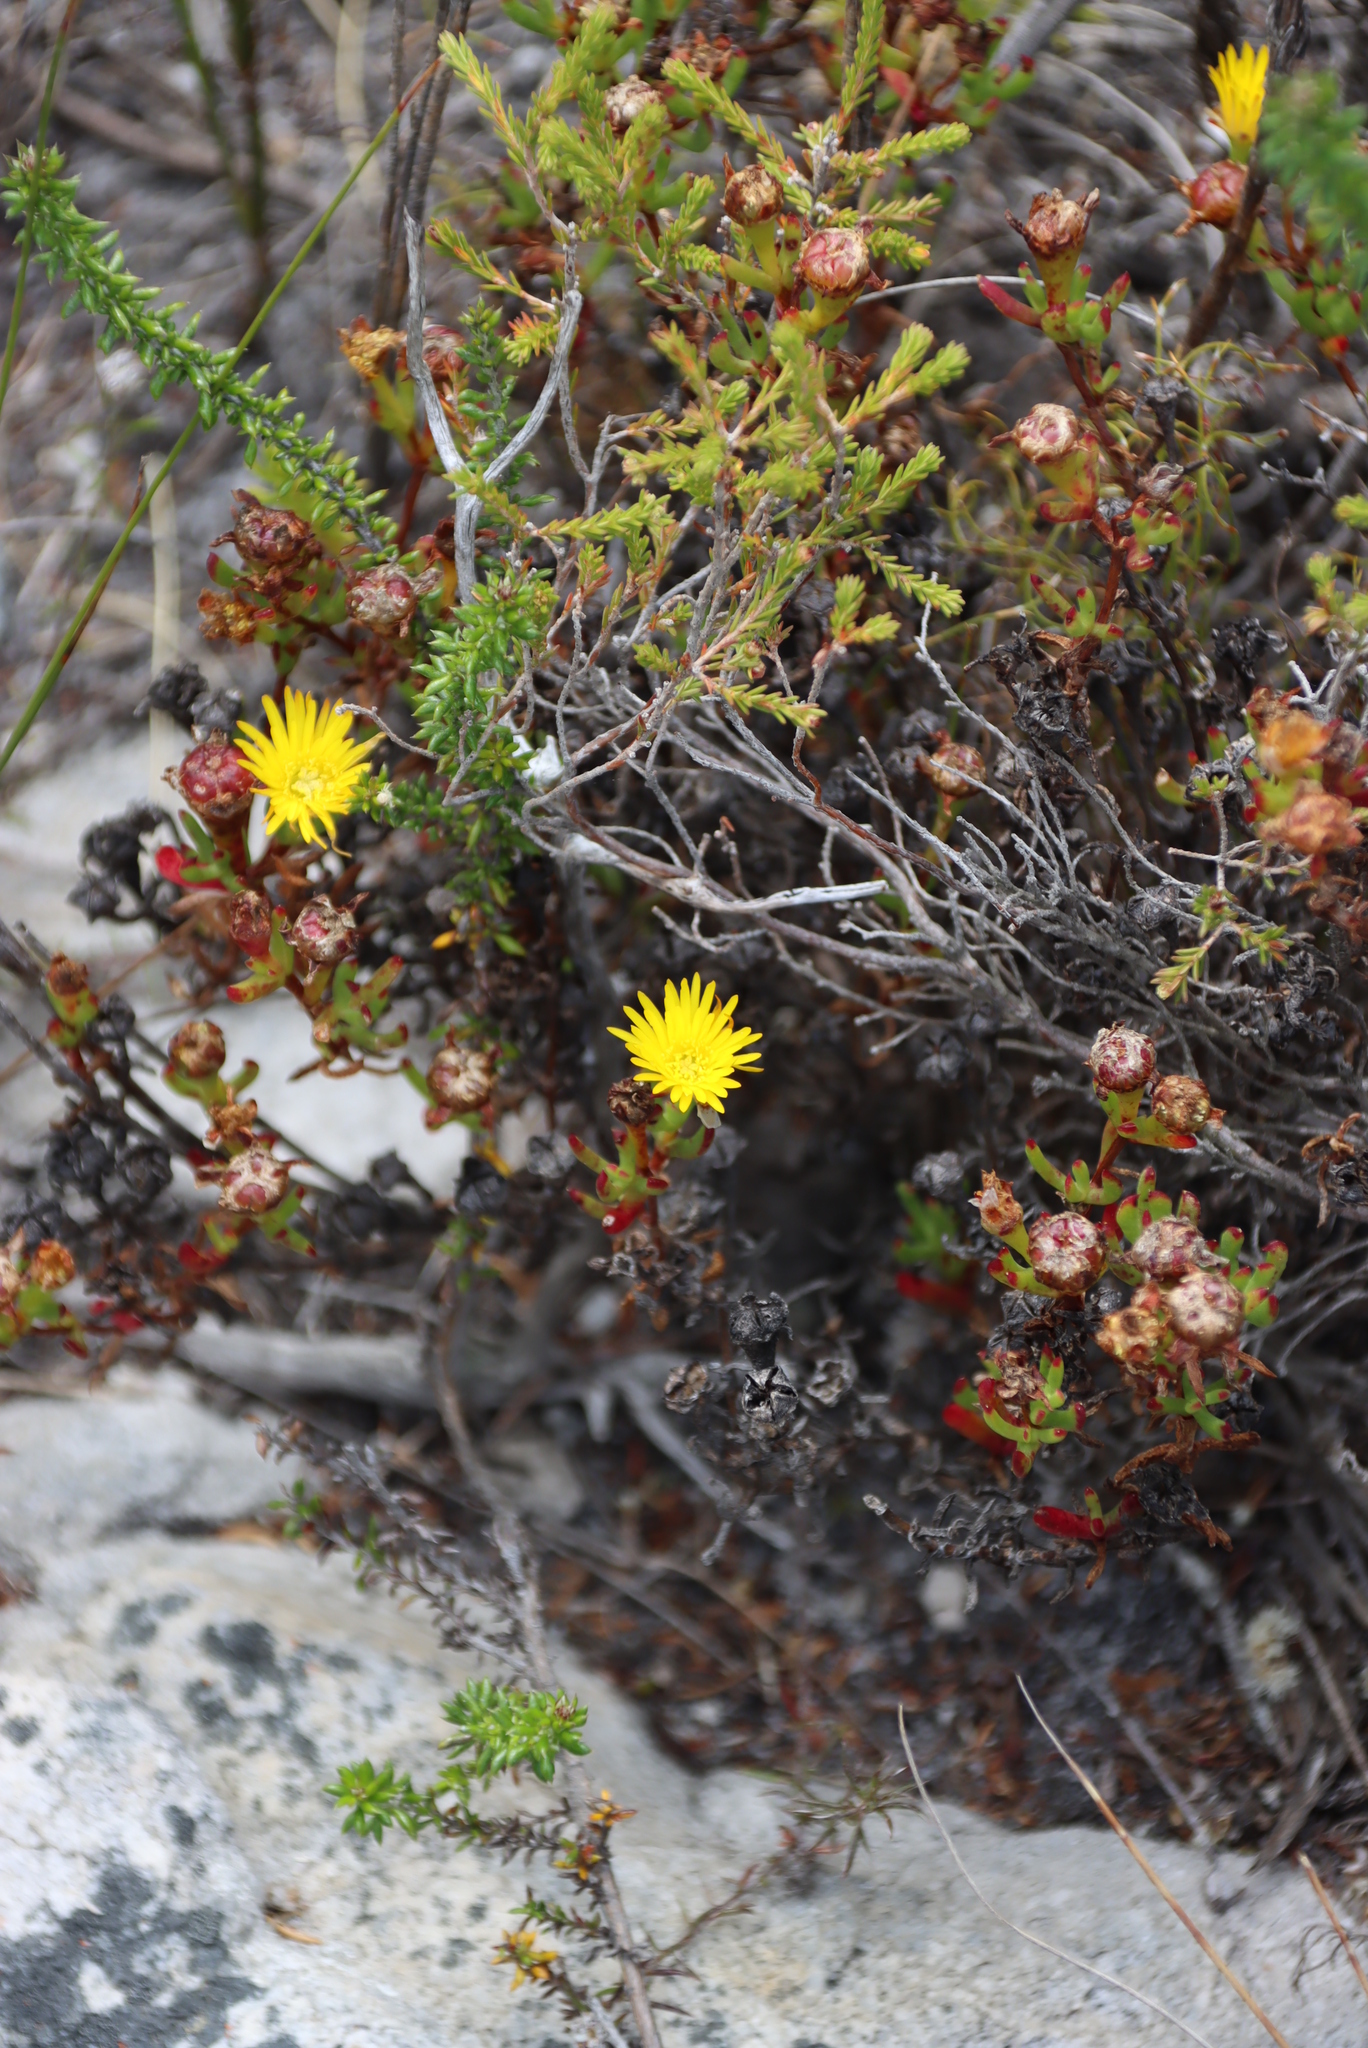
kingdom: Plantae
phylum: Tracheophyta
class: Magnoliopsida
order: Caryophyllales
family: Aizoaceae
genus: Lampranthus
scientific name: Lampranthus promontorii
